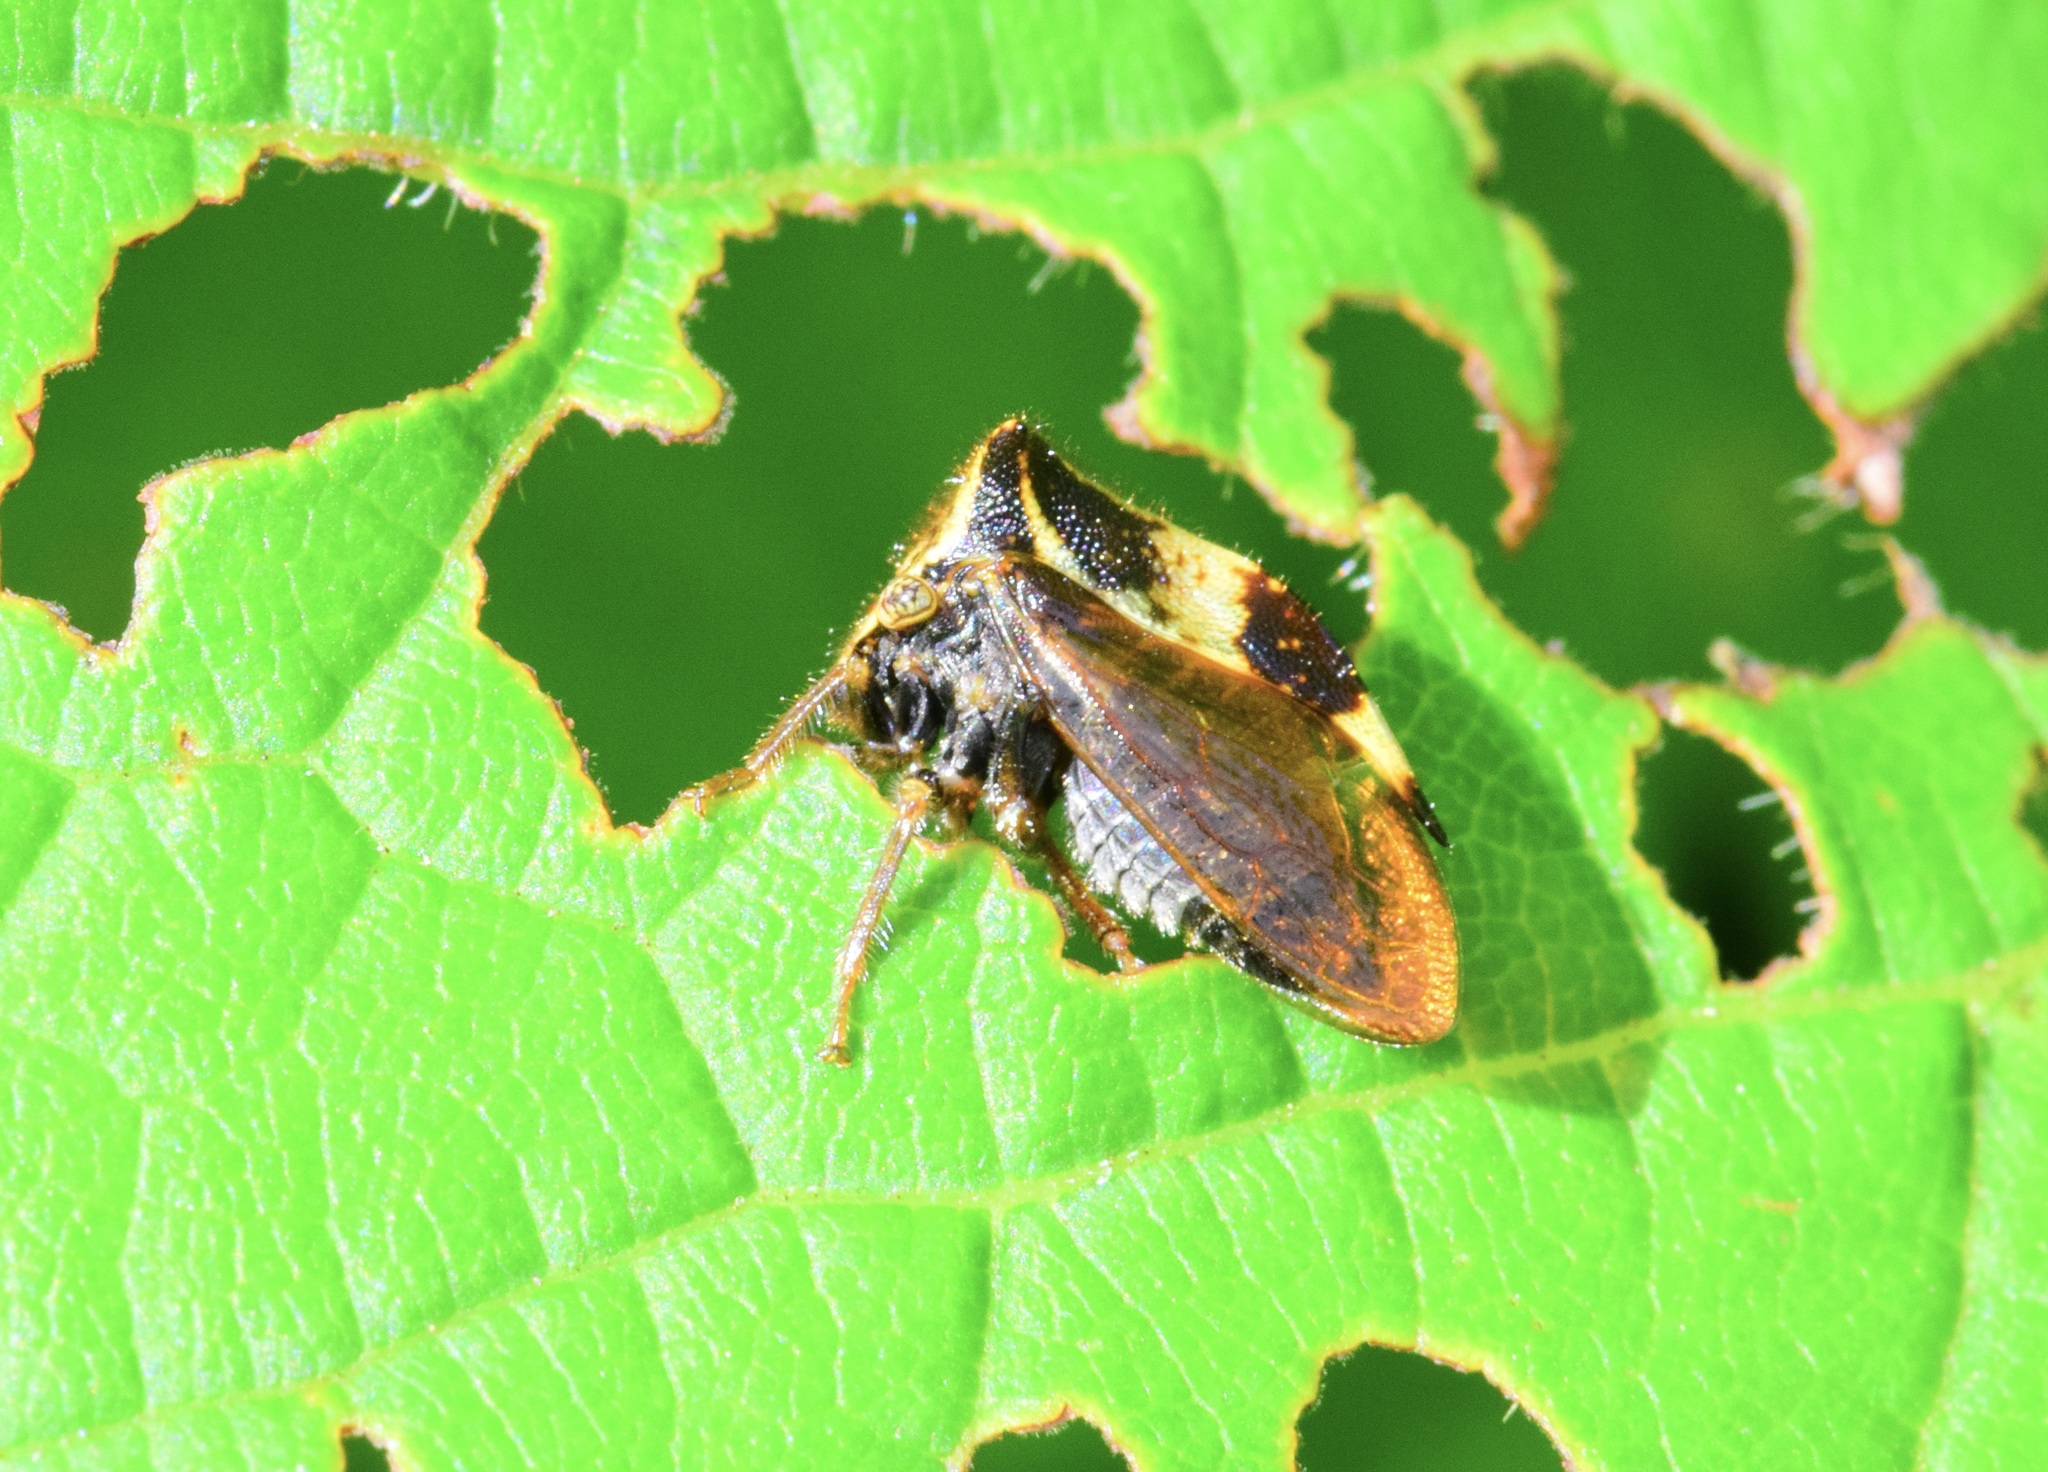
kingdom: Animalia
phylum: Arthropoda
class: Insecta
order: Hemiptera
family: Membracidae
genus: Stictocephala
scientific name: Stictocephala diceros
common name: Two-horned treehopper
